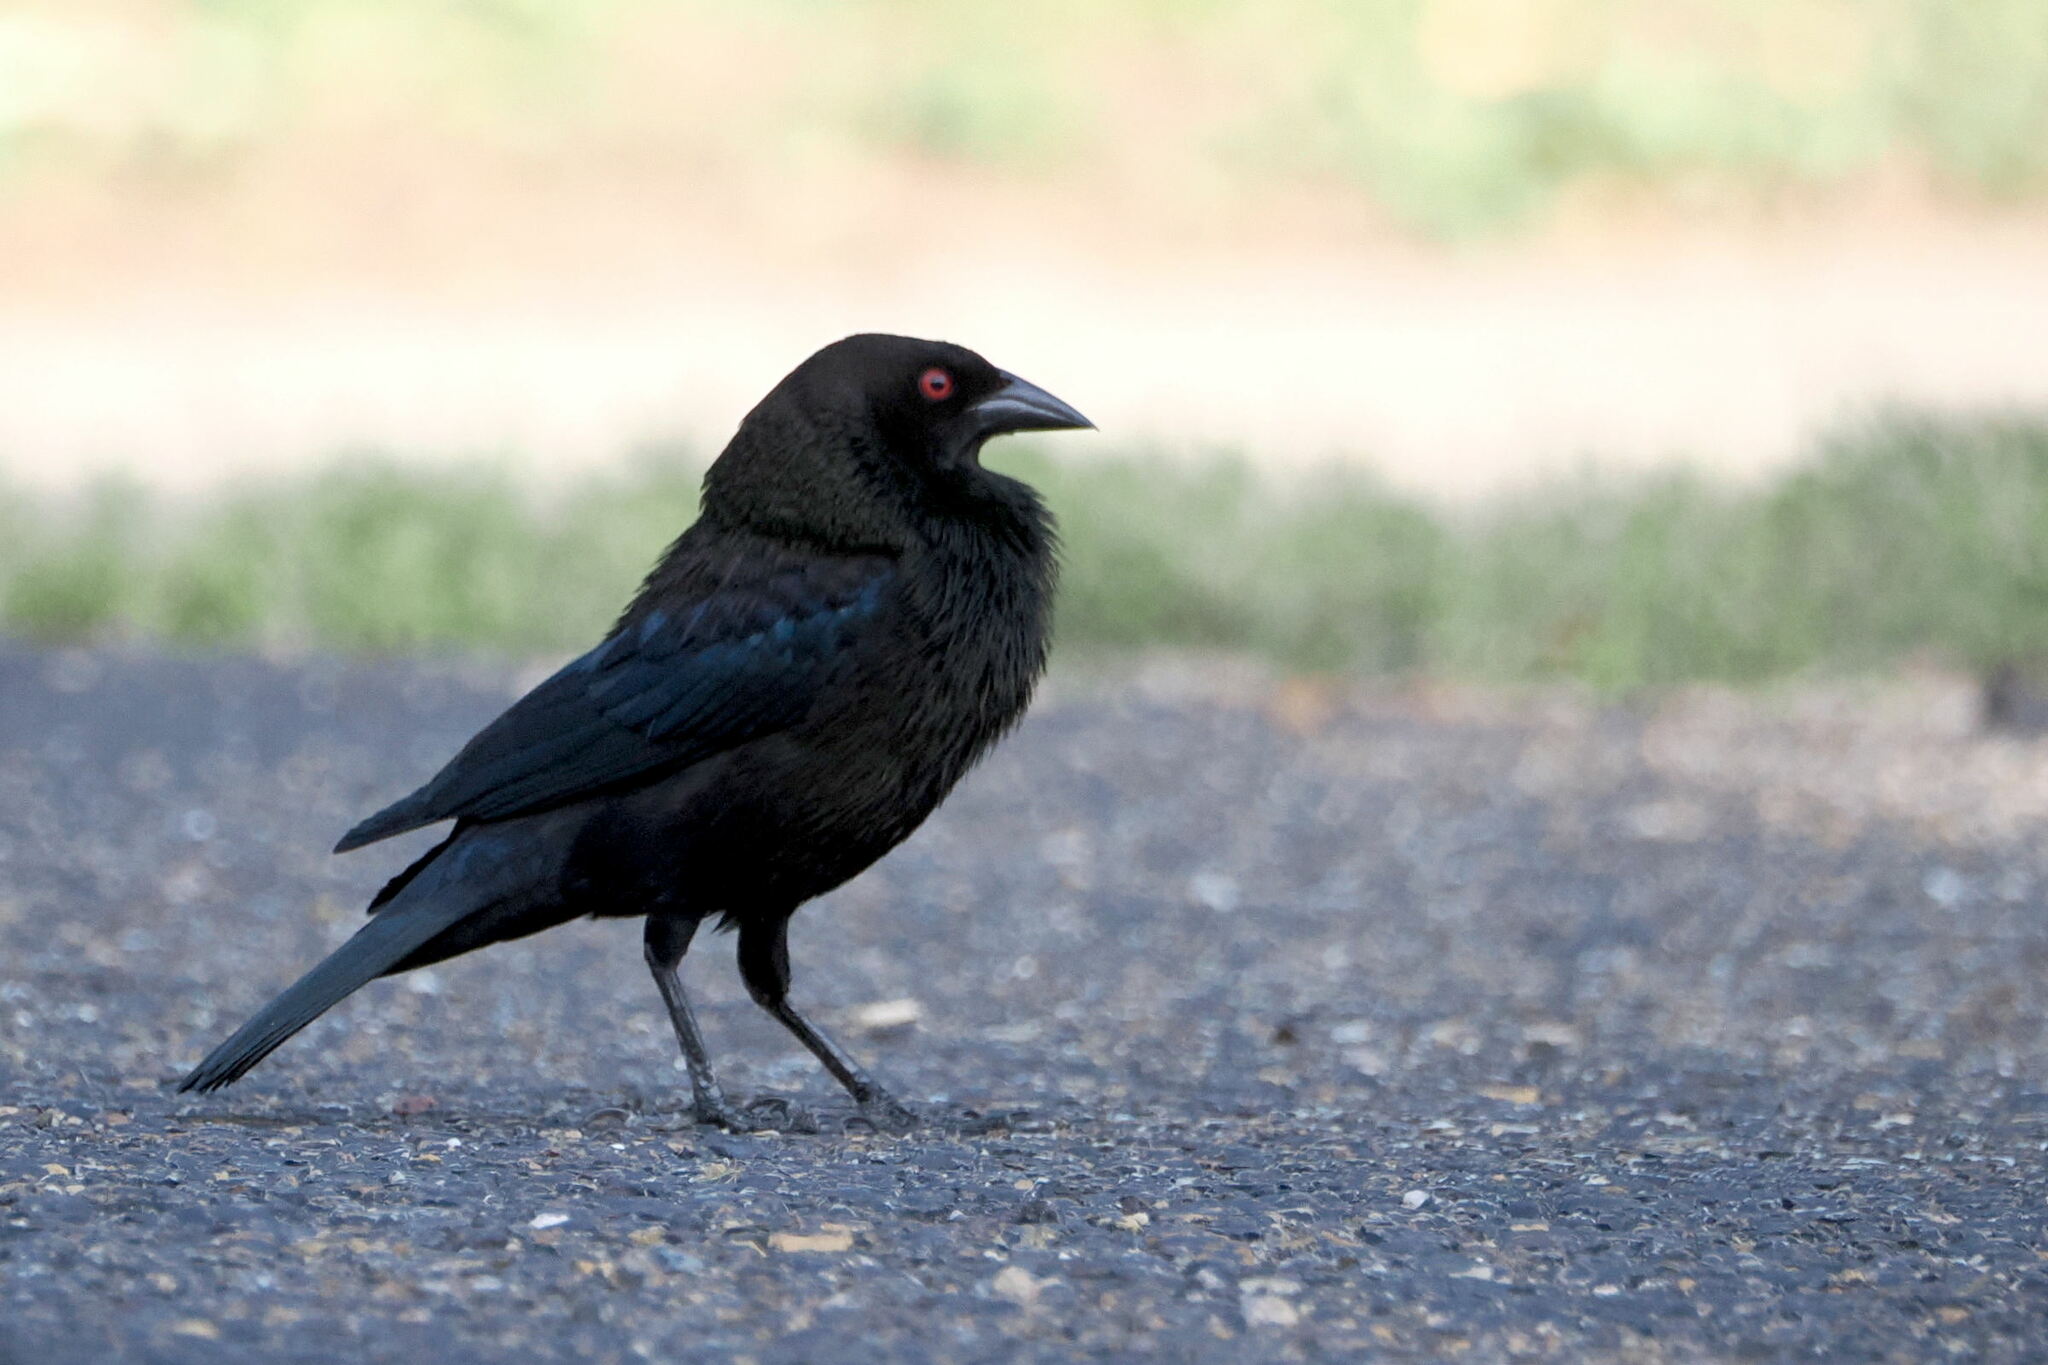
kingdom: Animalia
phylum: Chordata
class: Aves
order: Passeriformes
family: Icteridae
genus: Molothrus
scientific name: Molothrus aeneus
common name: Bronzed cowbird
